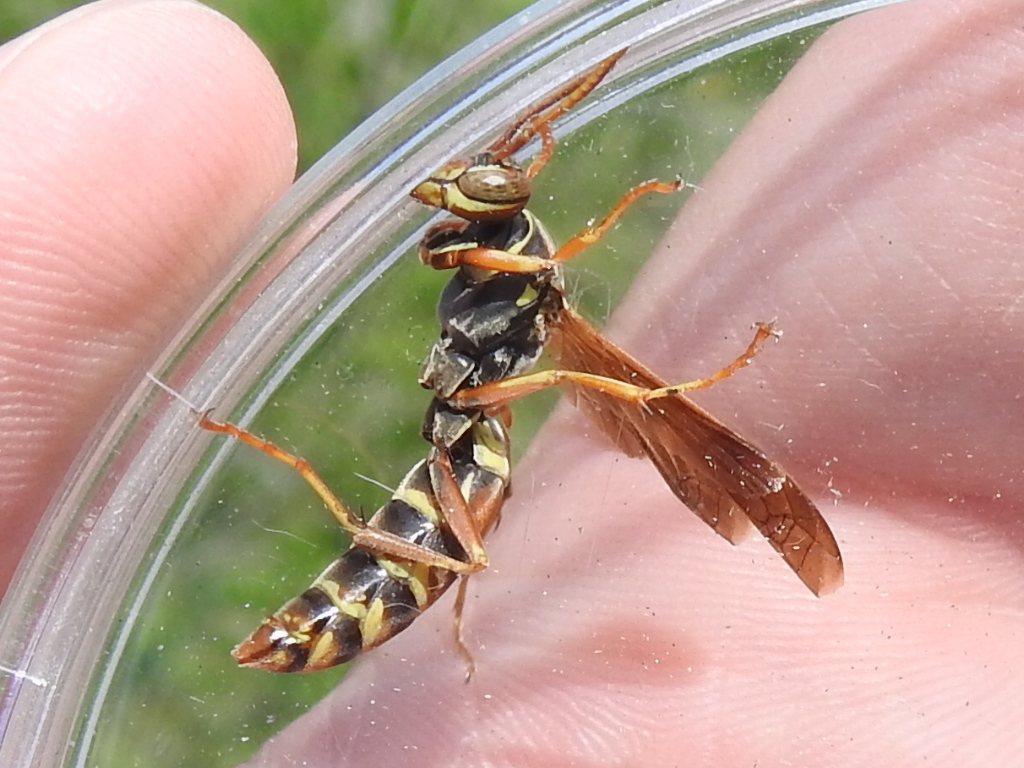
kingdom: Animalia
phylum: Arthropoda
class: Insecta
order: Hymenoptera
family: Eumenidae
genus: Polistes
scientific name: Polistes fuscatus
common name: Dark paper wasp
